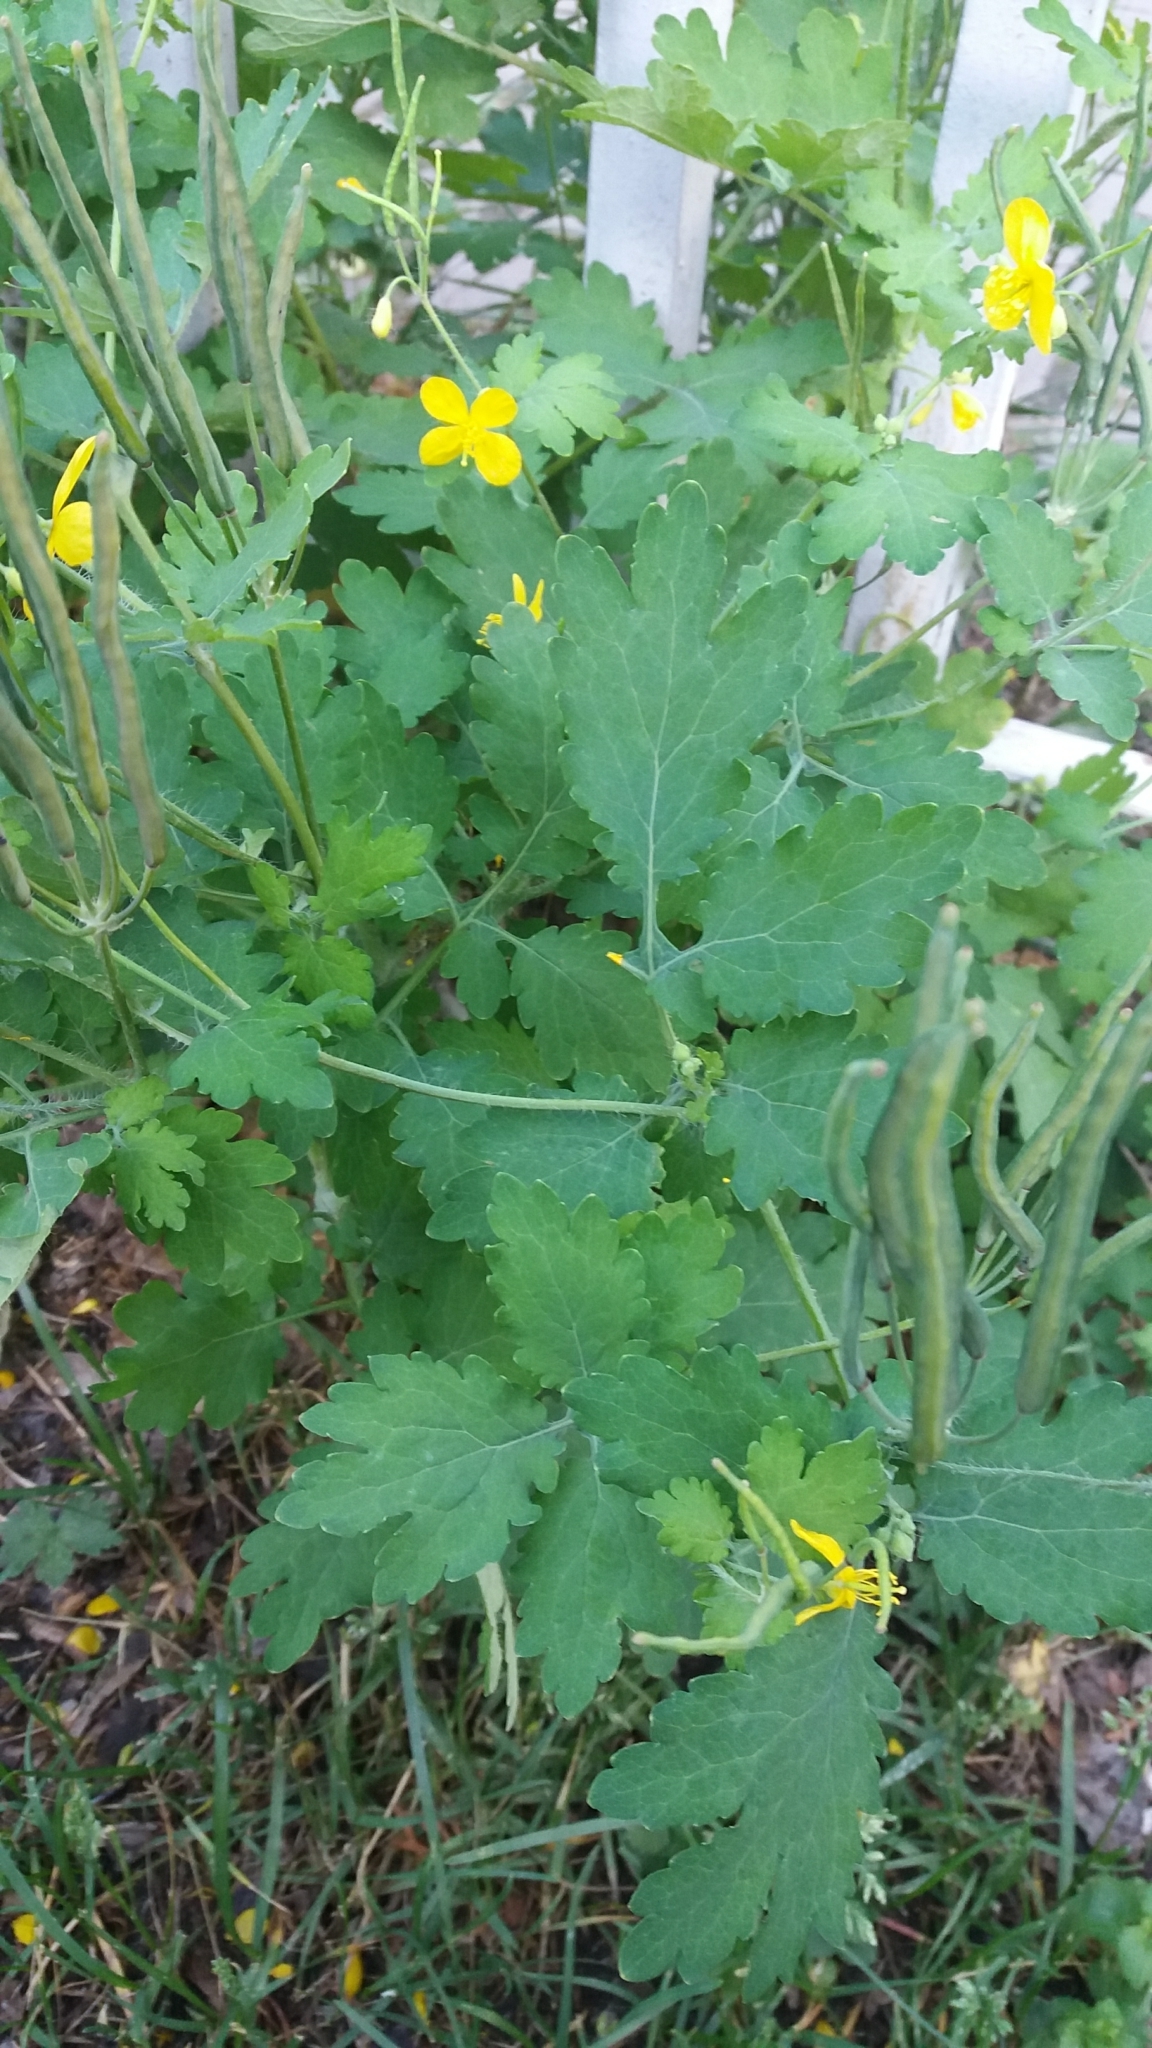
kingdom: Plantae
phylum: Tracheophyta
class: Magnoliopsida
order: Ranunculales
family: Papaveraceae
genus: Chelidonium
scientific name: Chelidonium majus
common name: Greater celandine
